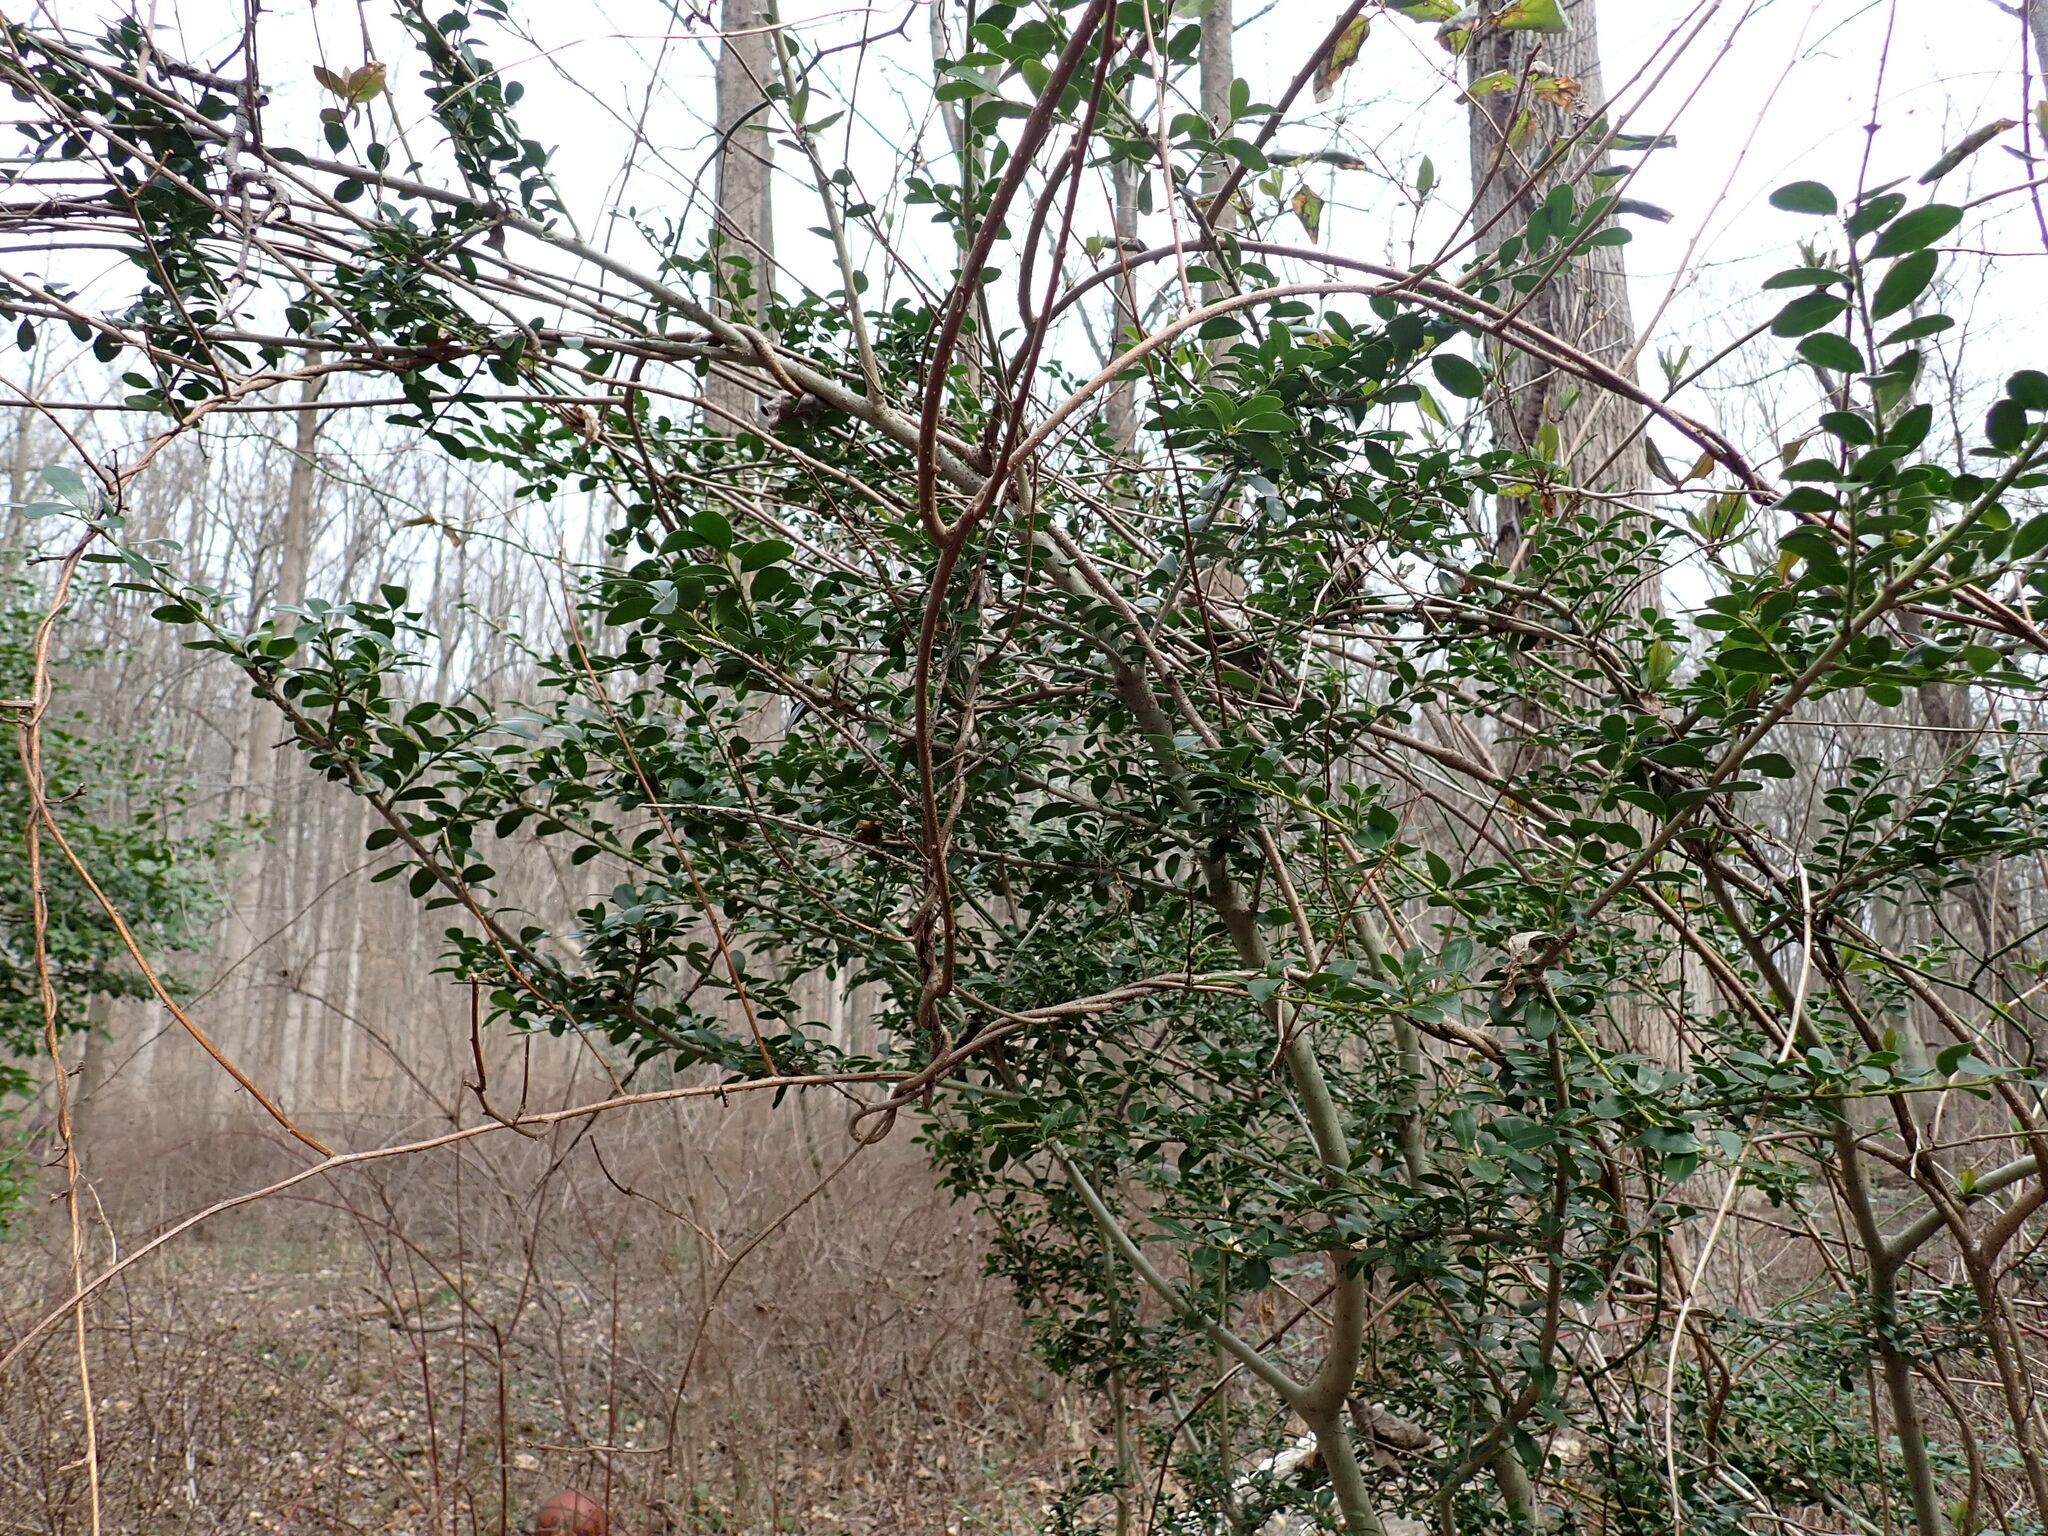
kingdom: Plantae
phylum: Tracheophyta
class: Magnoliopsida
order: Aquifoliales
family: Aquifoliaceae
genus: Ilex
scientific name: Ilex crenata
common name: Japanese holly
